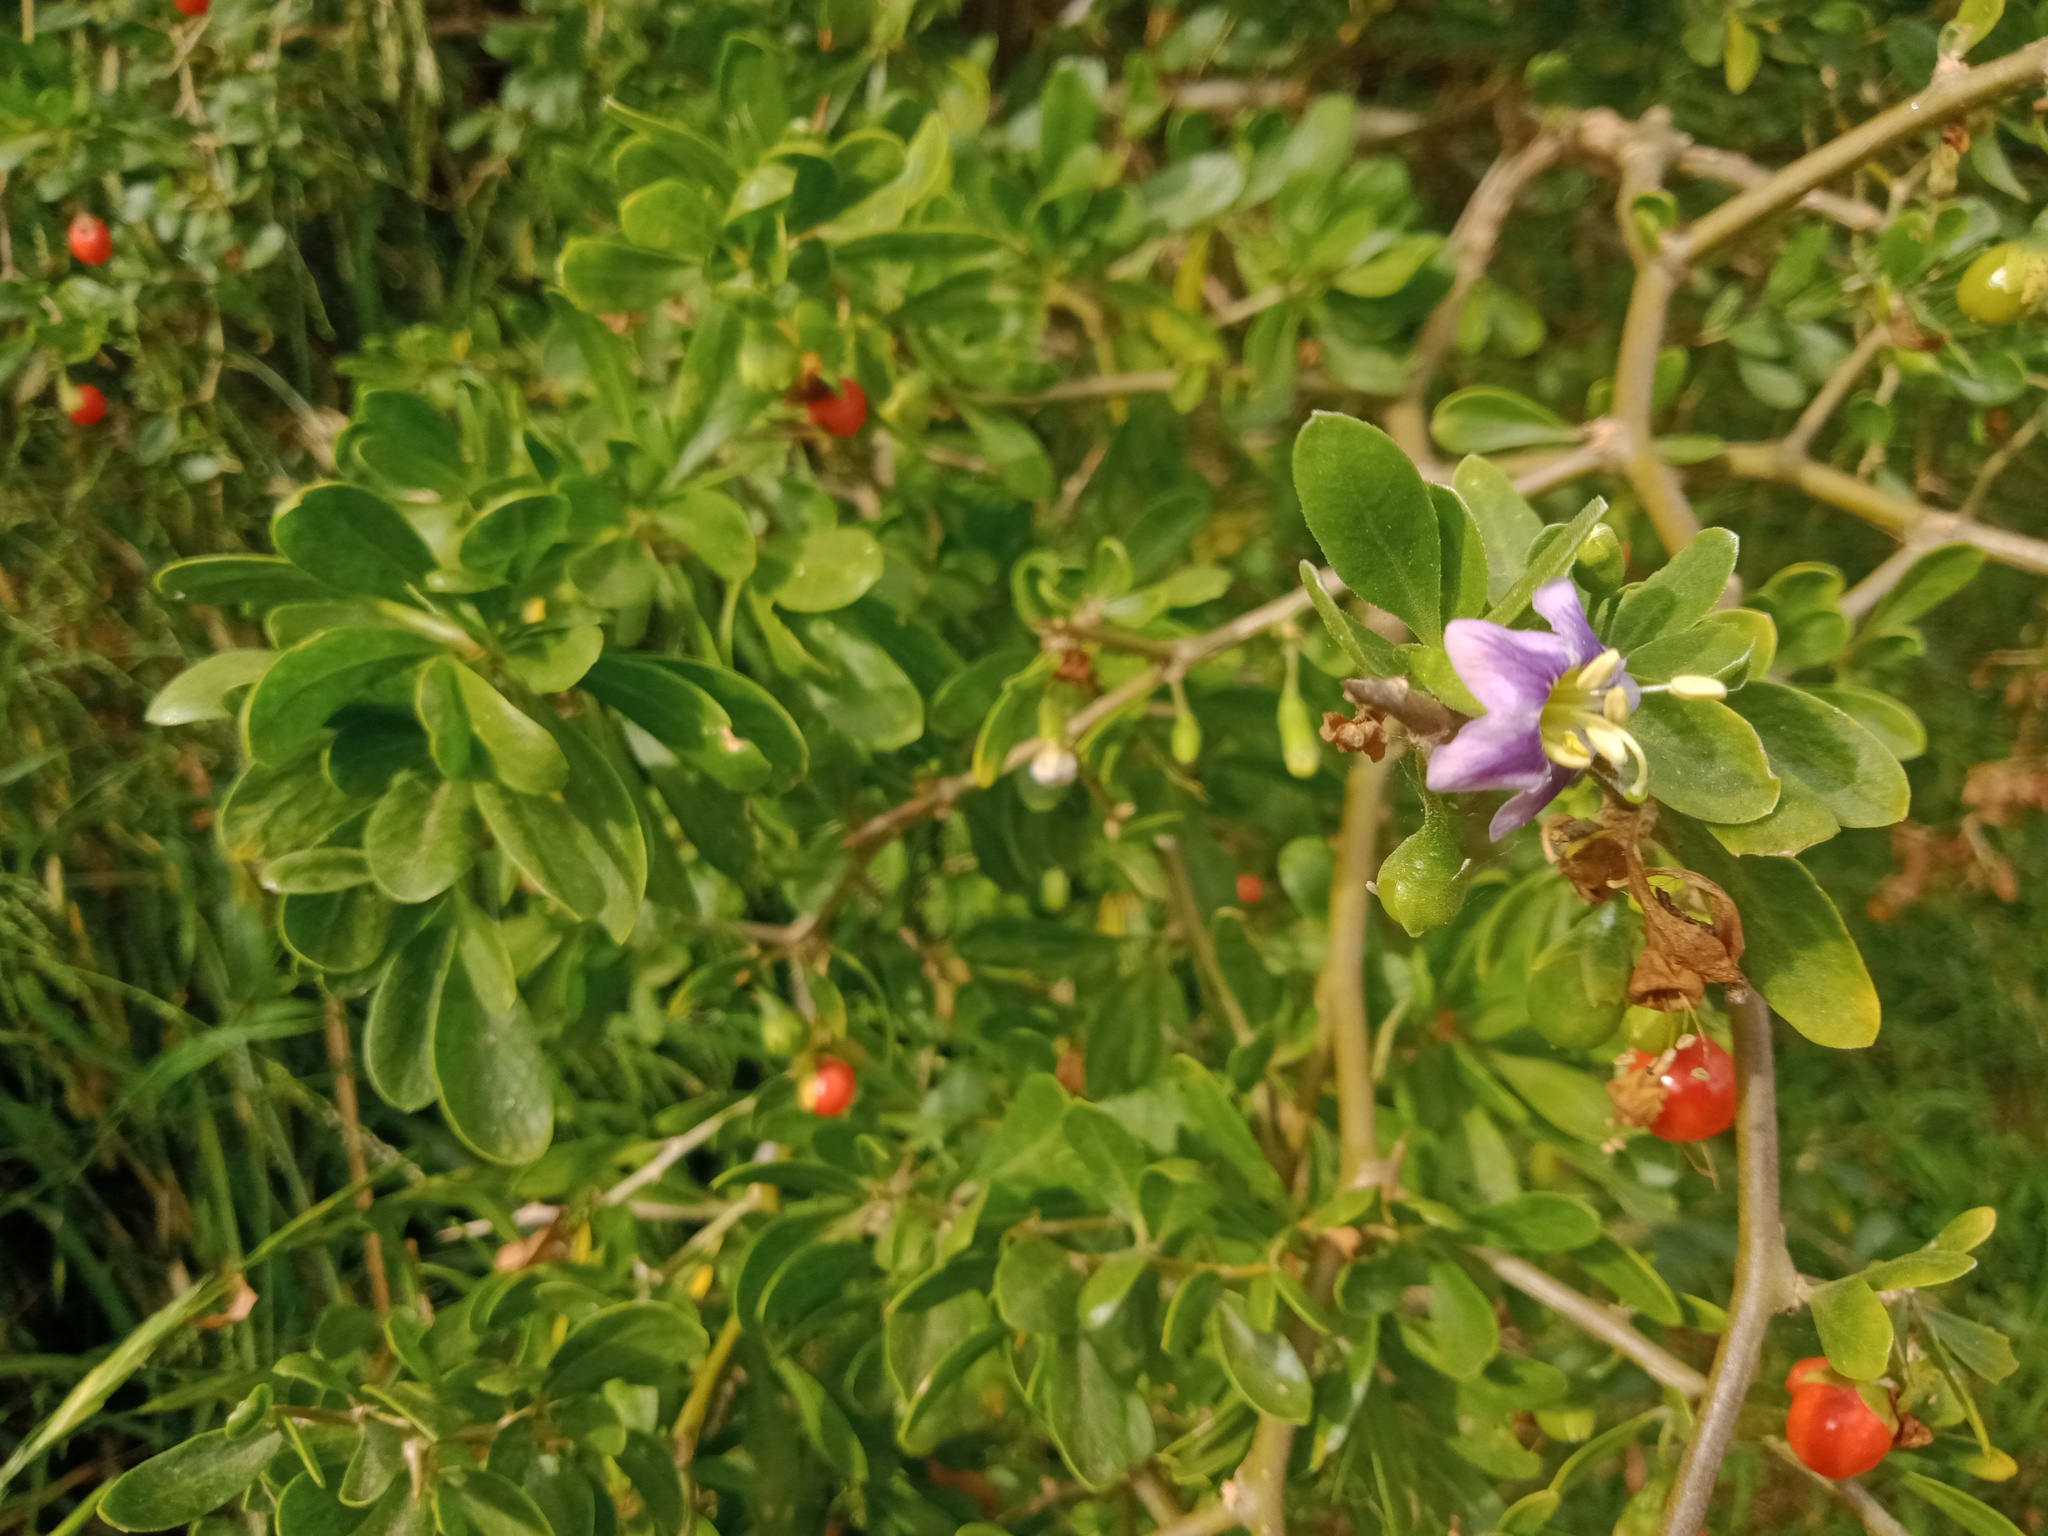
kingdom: Plantae
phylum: Tracheophyta
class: Magnoliopsida
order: Solanales
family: Solanaceae
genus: Lycium
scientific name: Lycium ferocissimum
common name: African boxthorn
